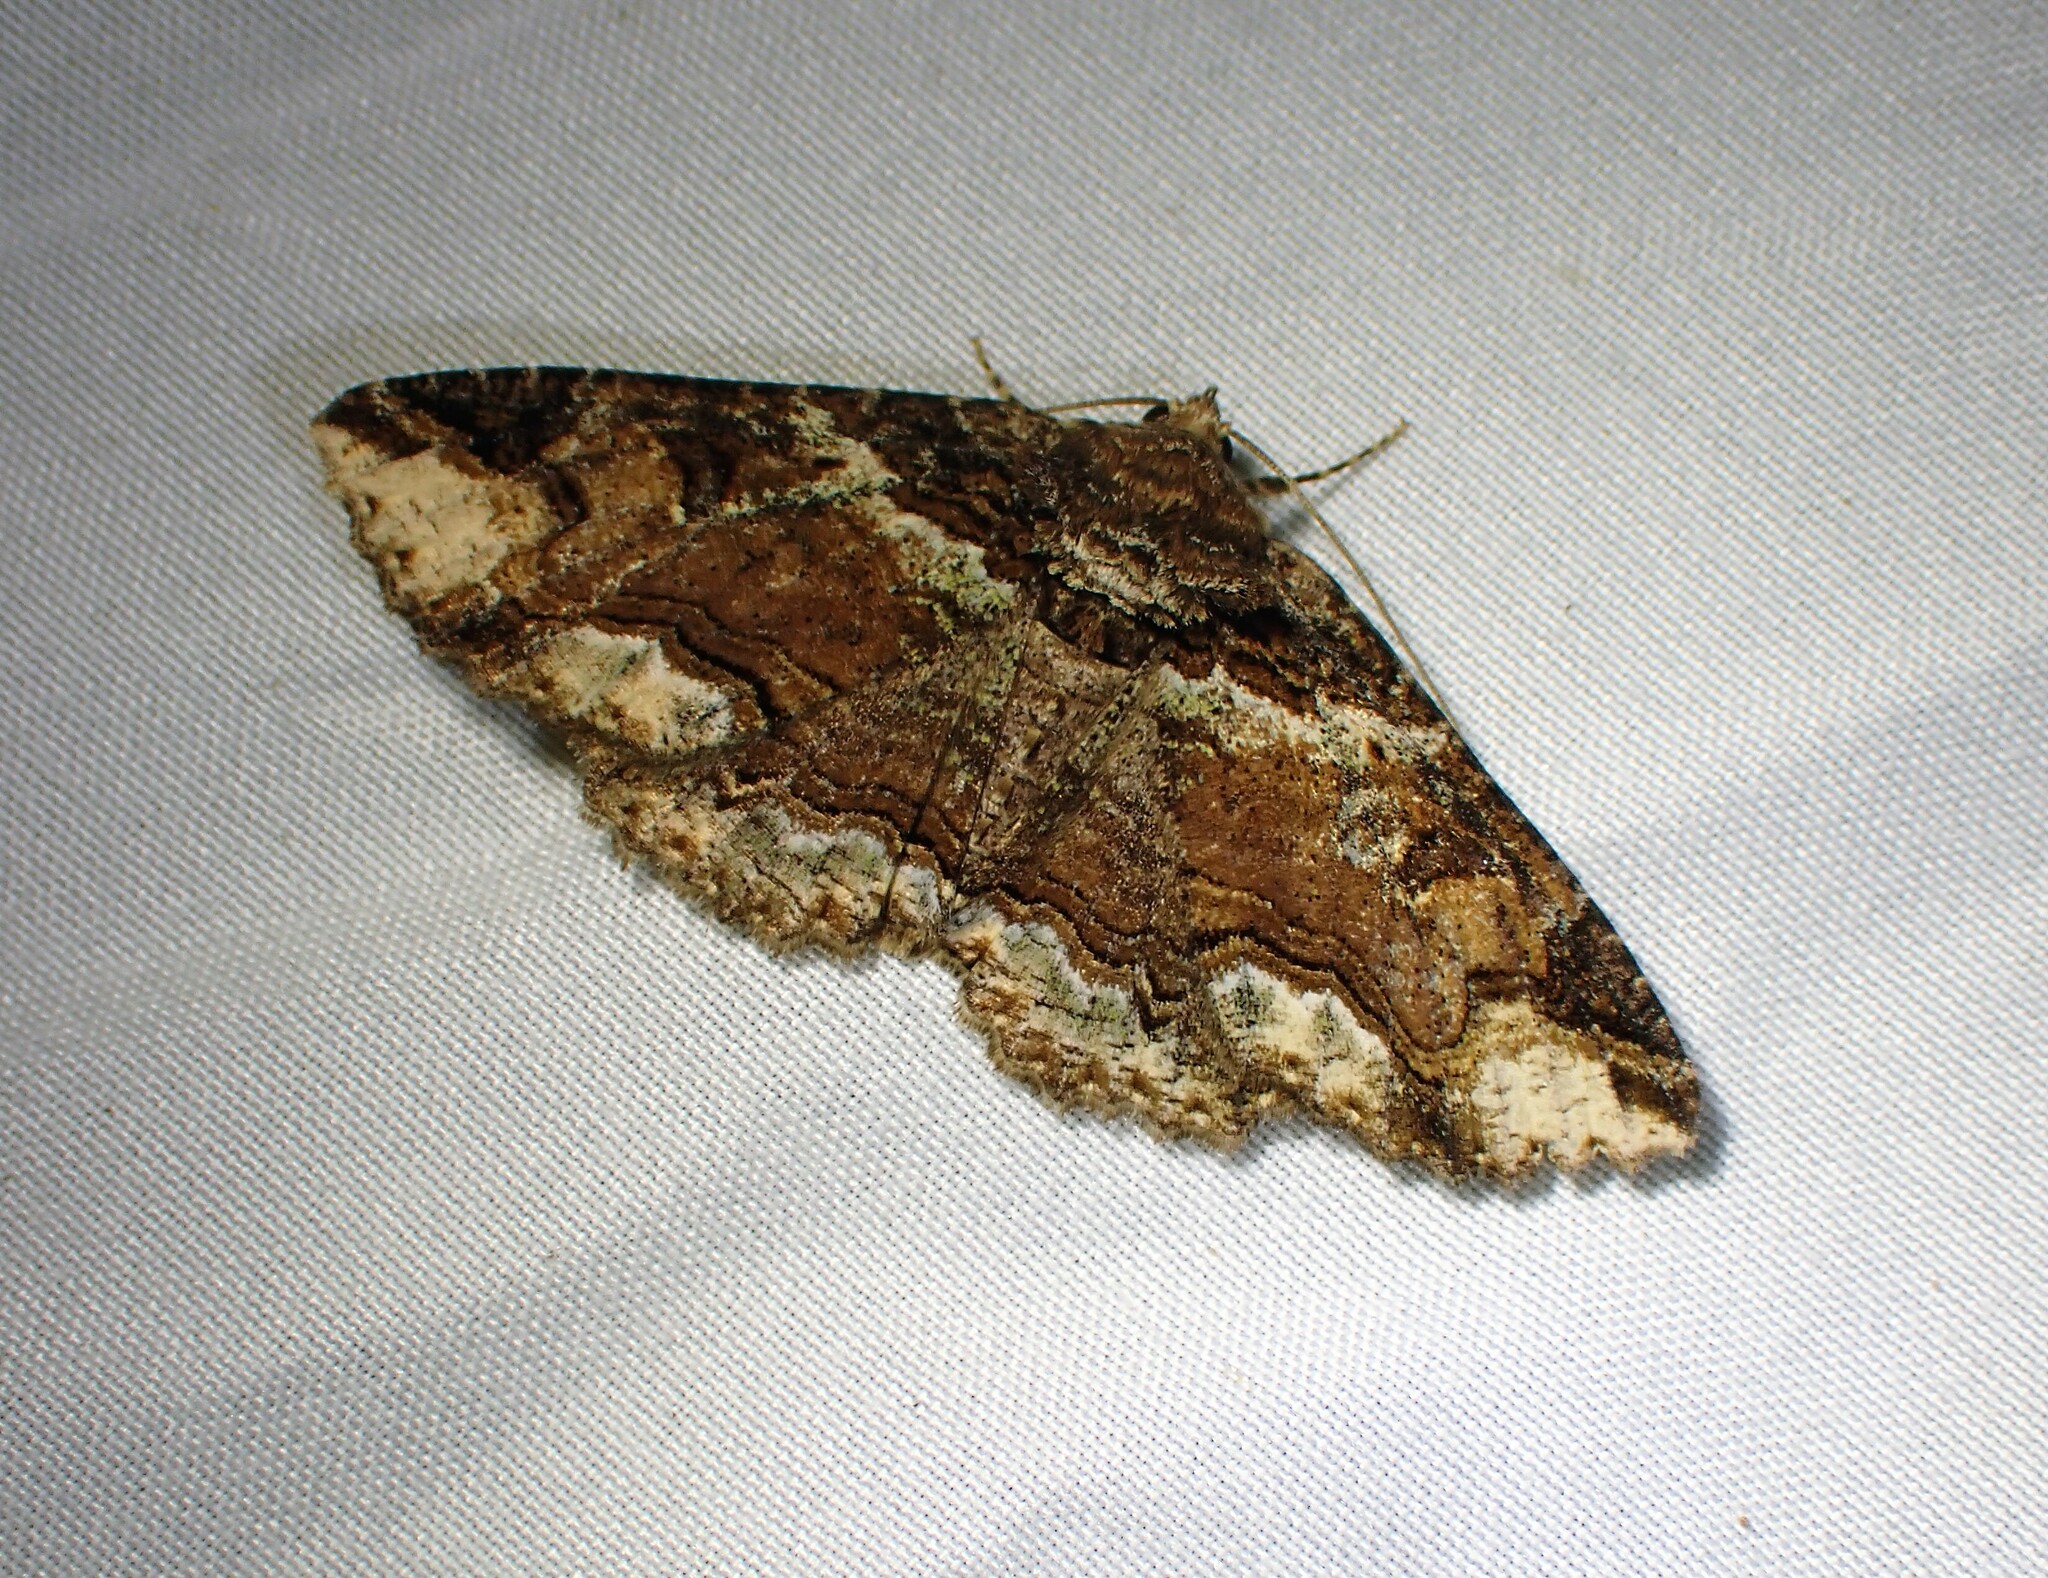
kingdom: Animalia
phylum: Arthropoda
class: Insecta
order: Lepidoptera
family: Erebidae
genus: Zale
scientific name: Zale minerea
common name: Colorful zale moth
